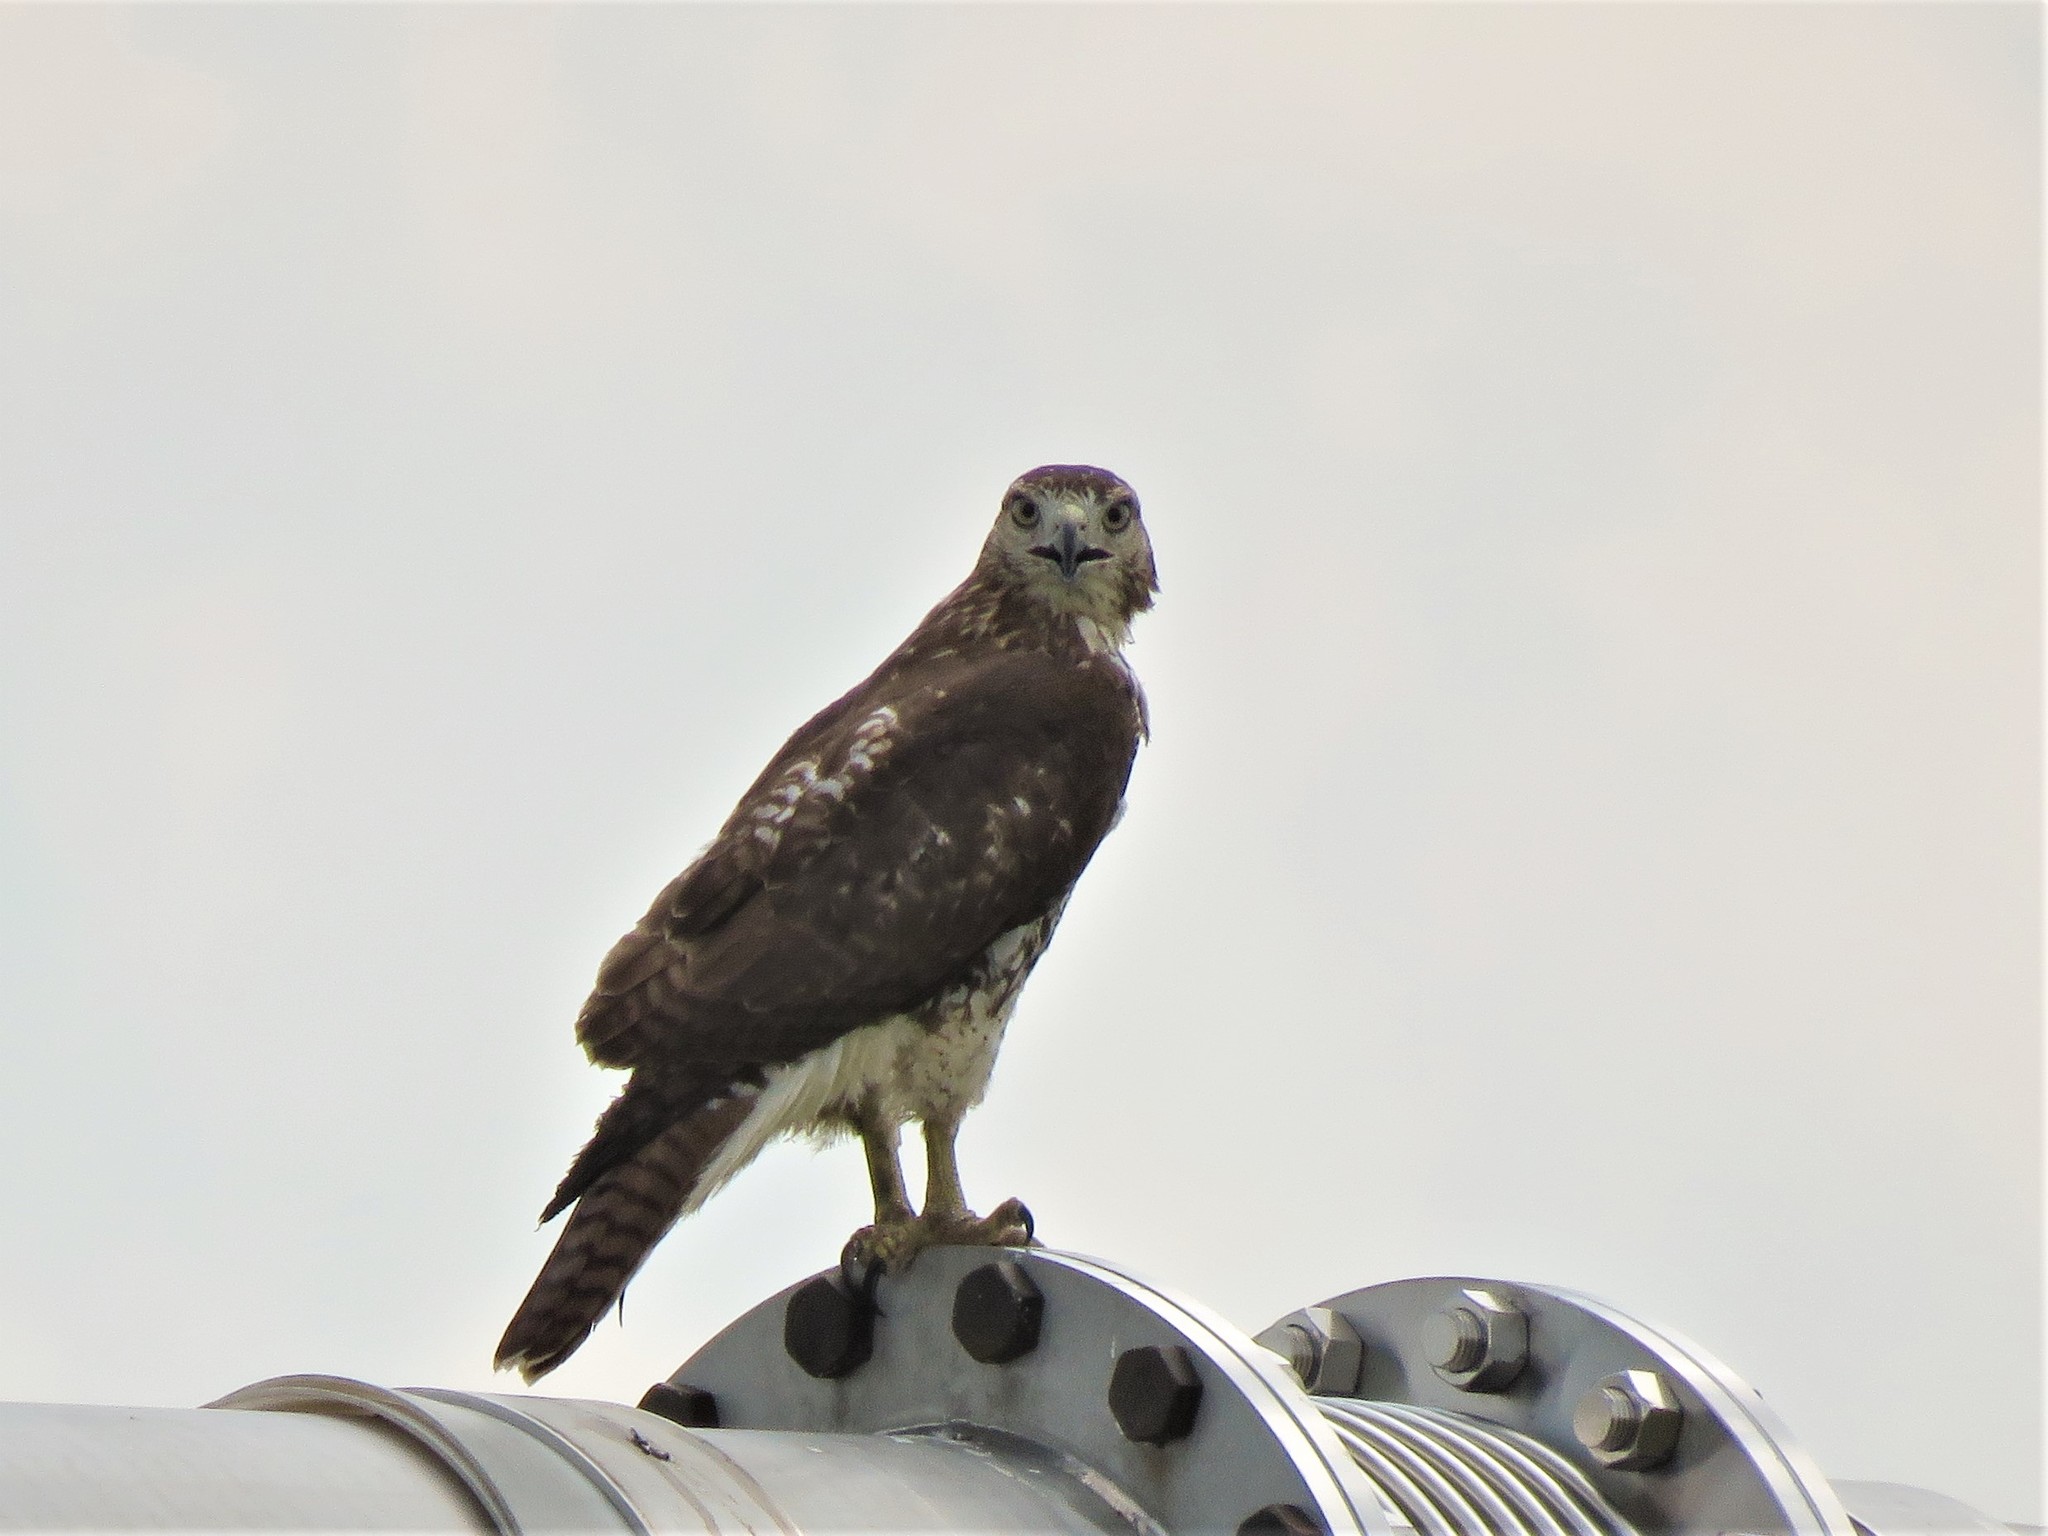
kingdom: Animalia
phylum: Chordata
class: Aves
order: Accipitriformes
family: Accipitridae
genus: Buteo
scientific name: Buteo jamaicensis
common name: Red-tailed hawk
